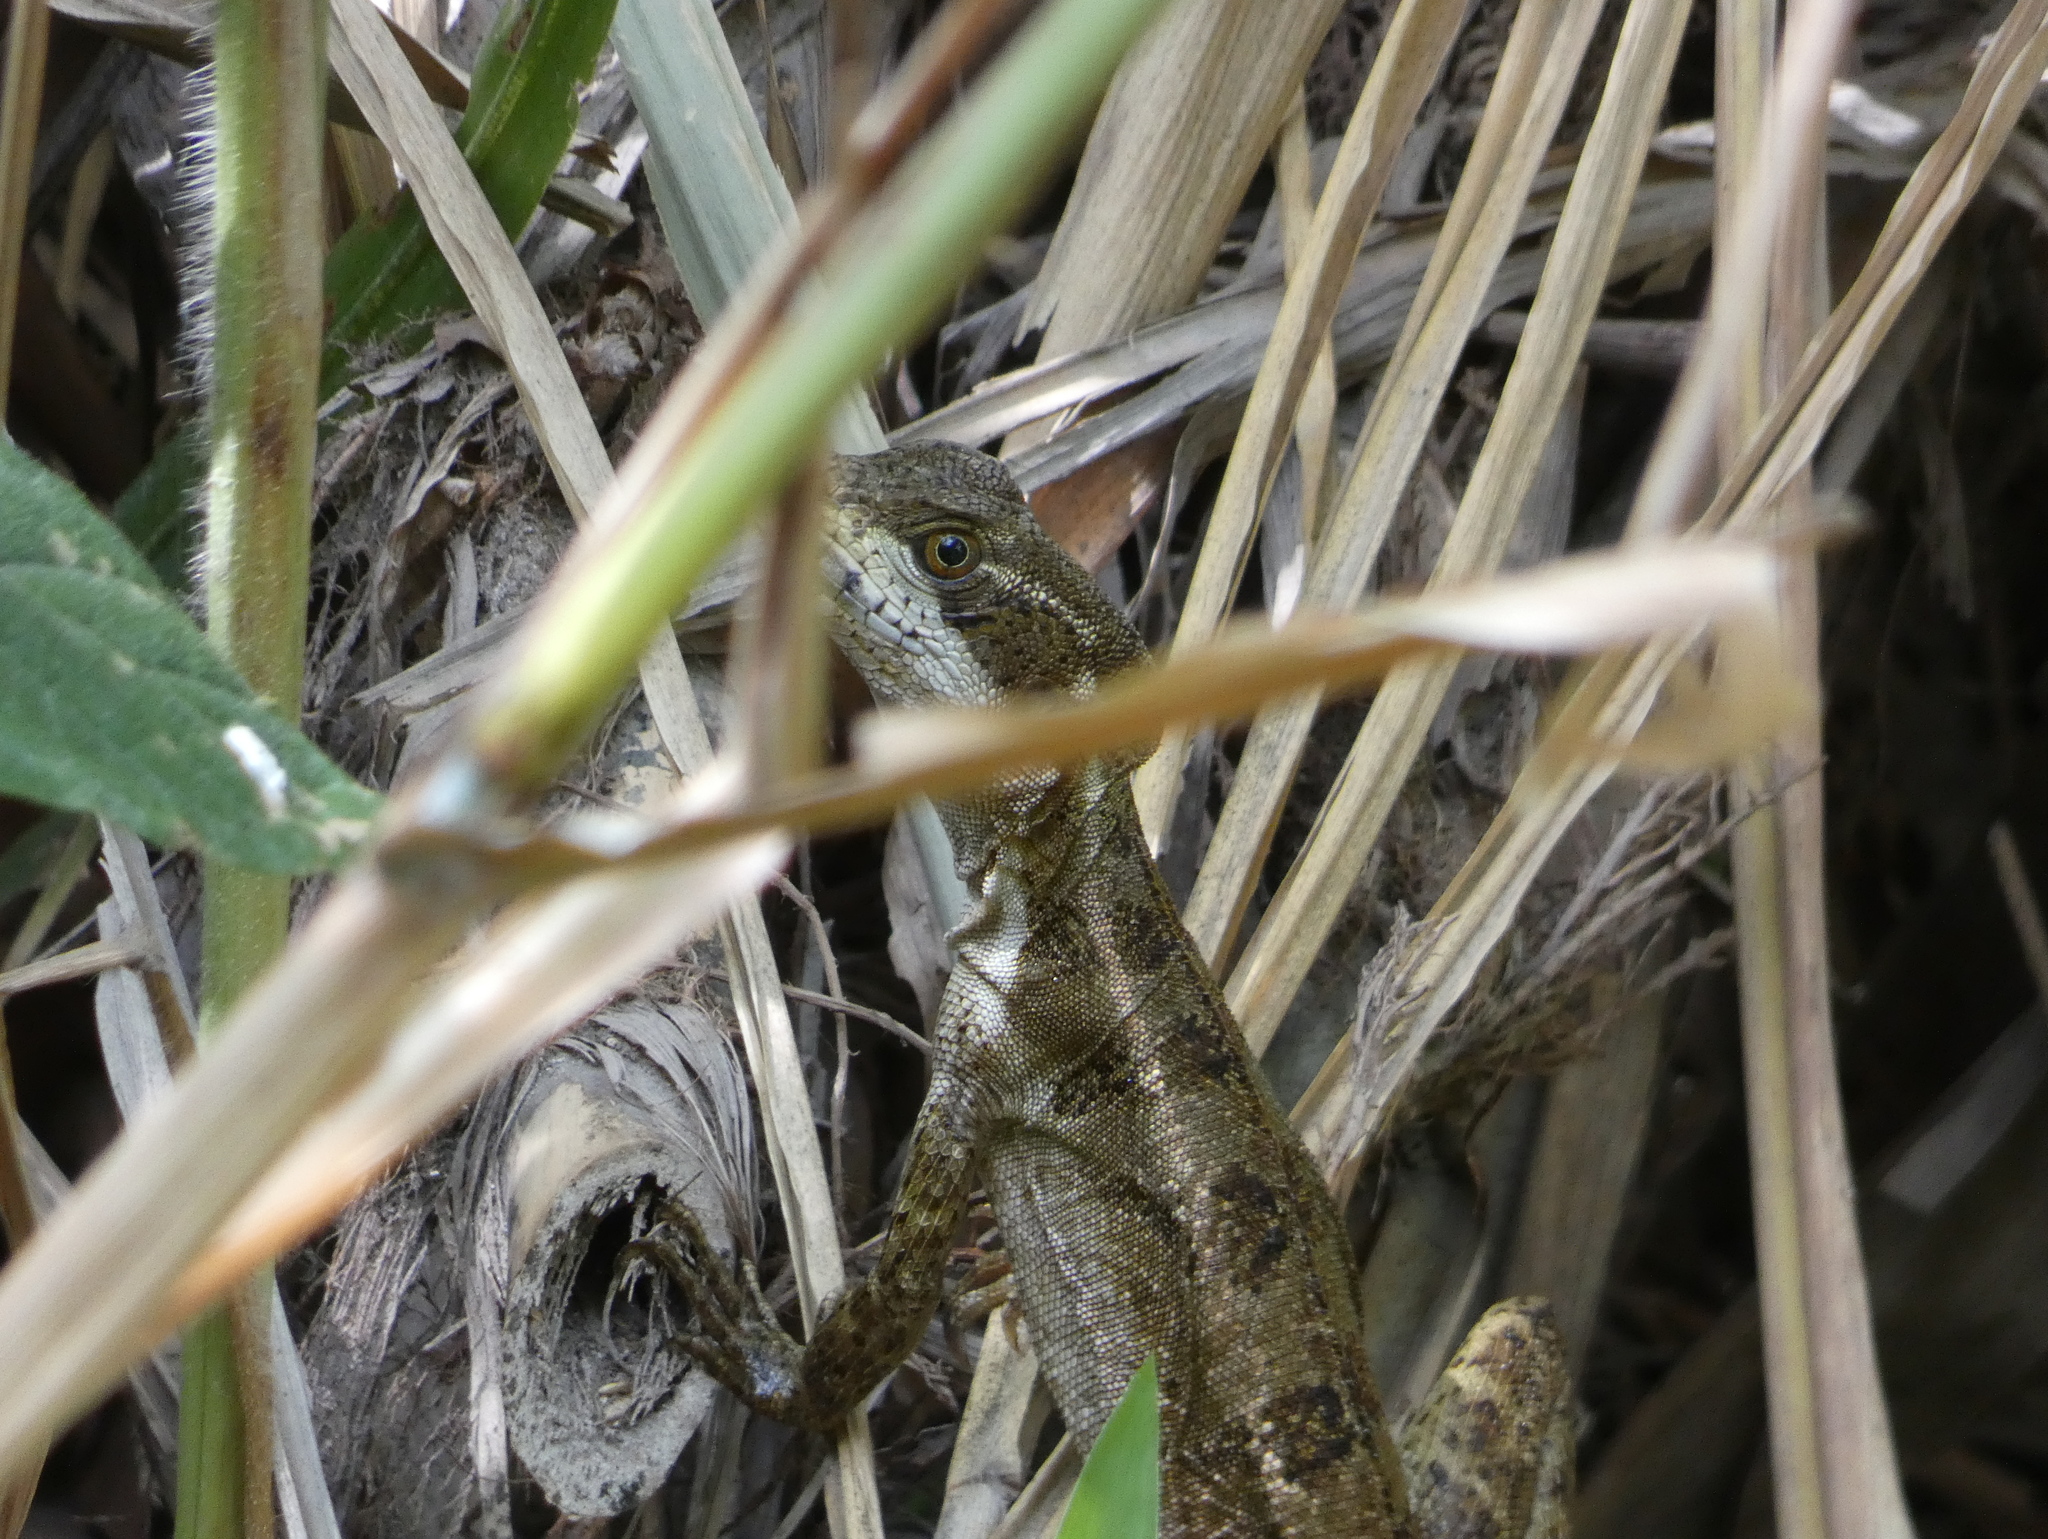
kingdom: Animalia
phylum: Chordata
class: Squamata
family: Corytophanidae
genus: Basiliscus
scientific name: Basiliscus basiliscus
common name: Common basilisk
